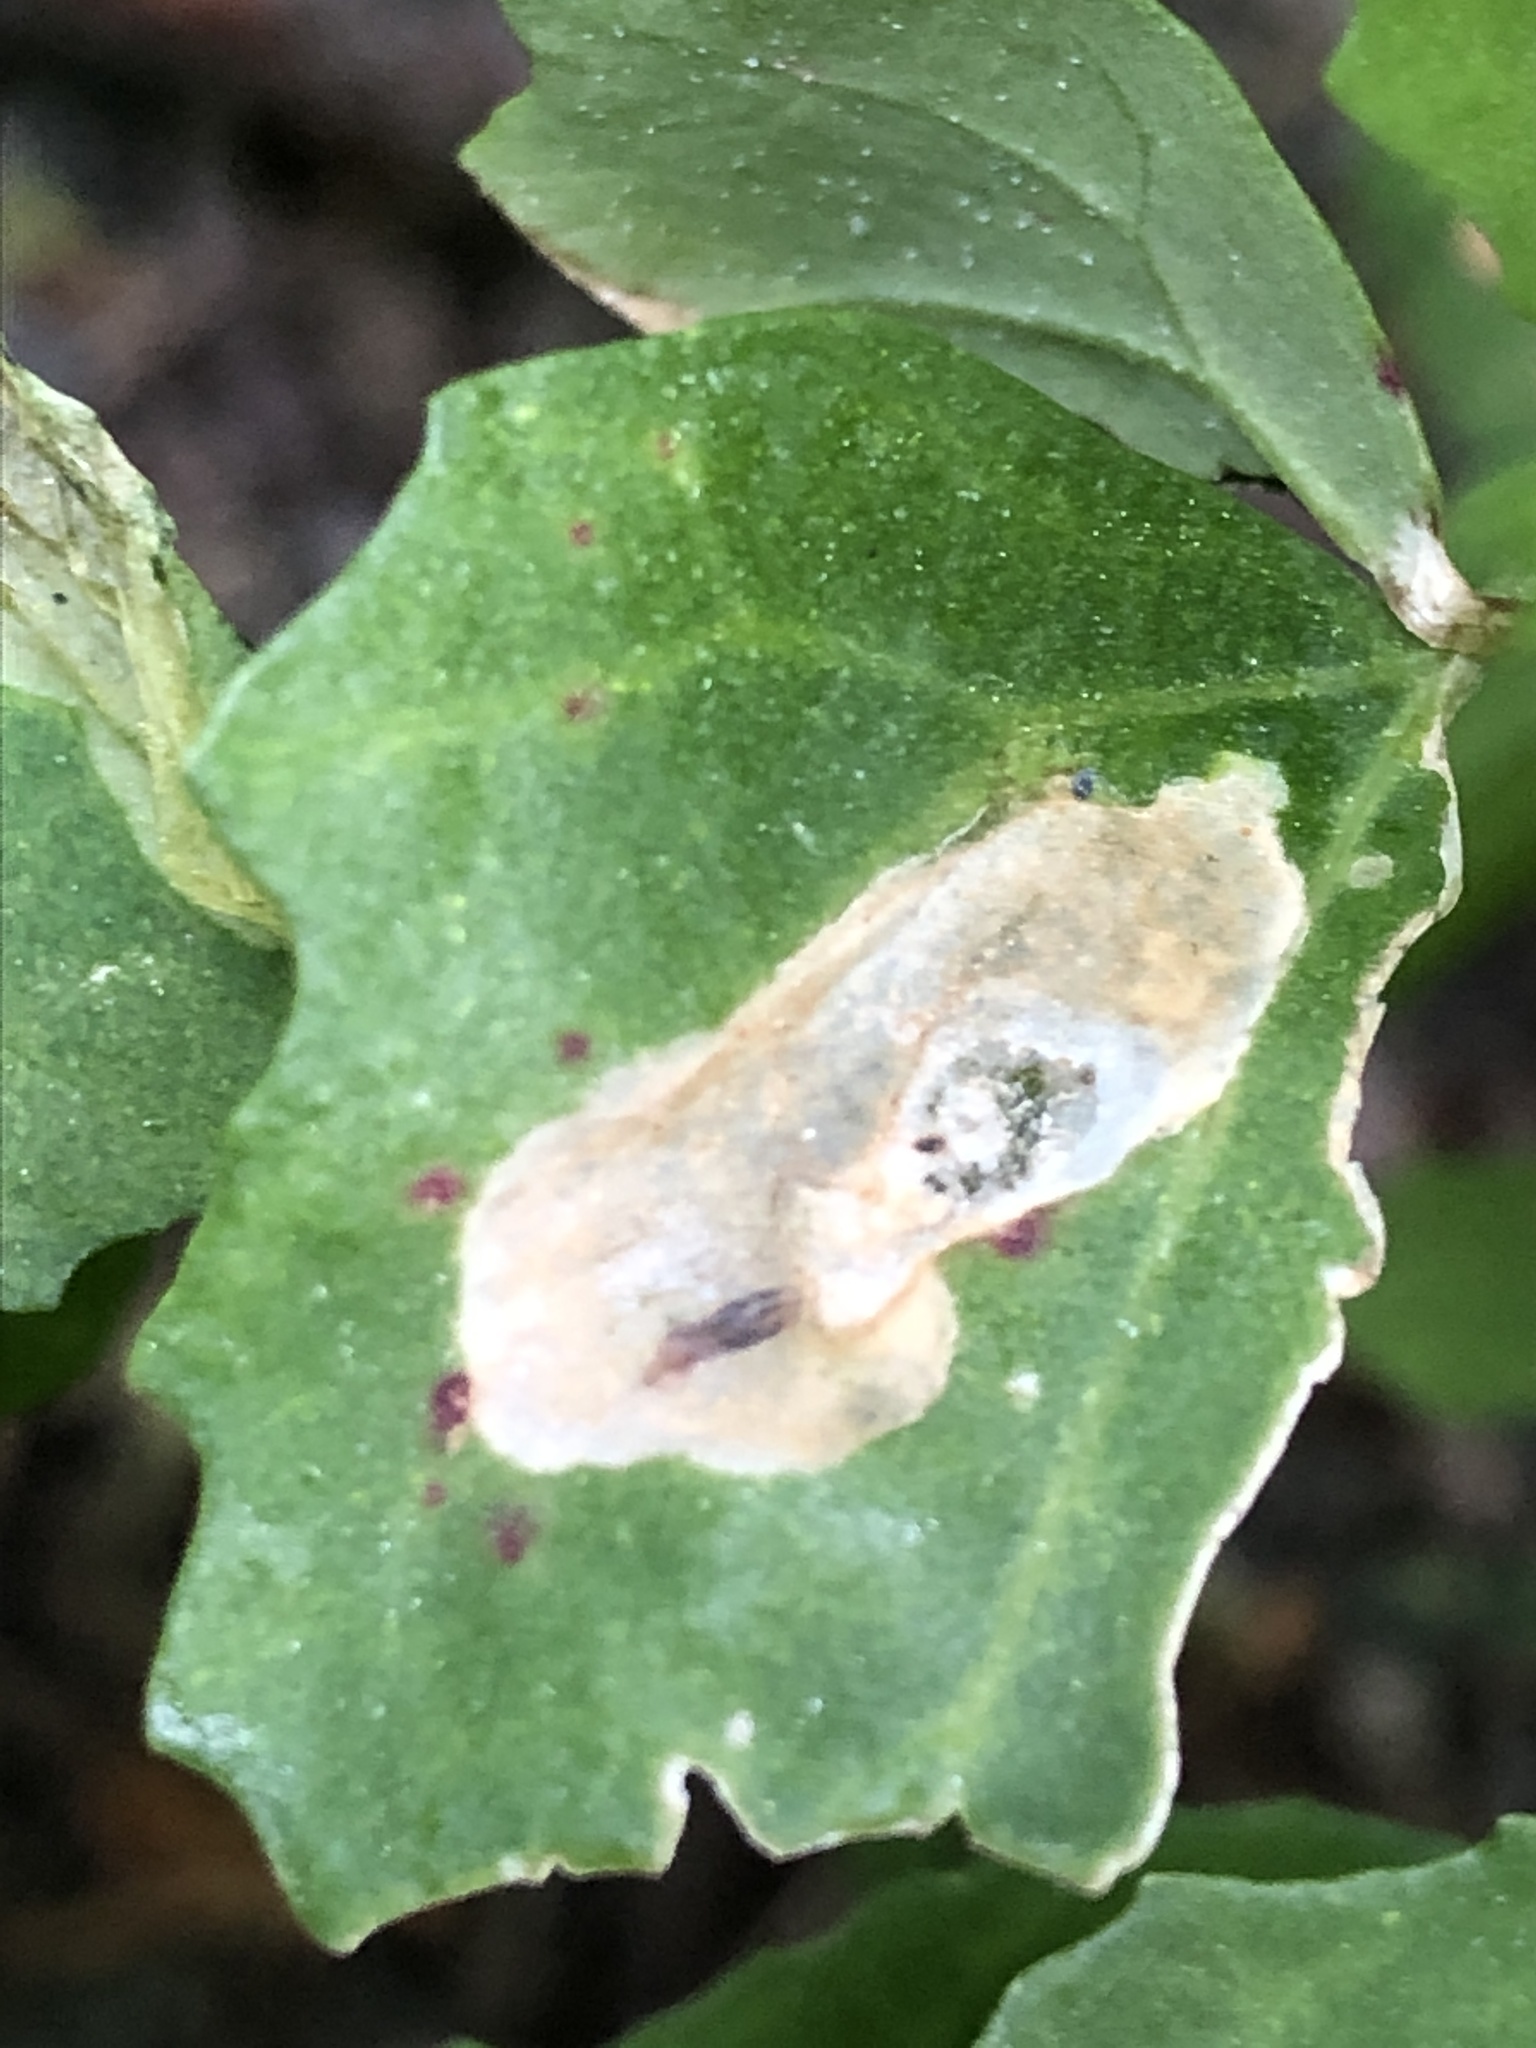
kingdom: Animalia
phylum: Arthropoda
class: Insecta
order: Diptera
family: Agromyzidae
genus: Amauromyza
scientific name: Amauromyza flavifrons
